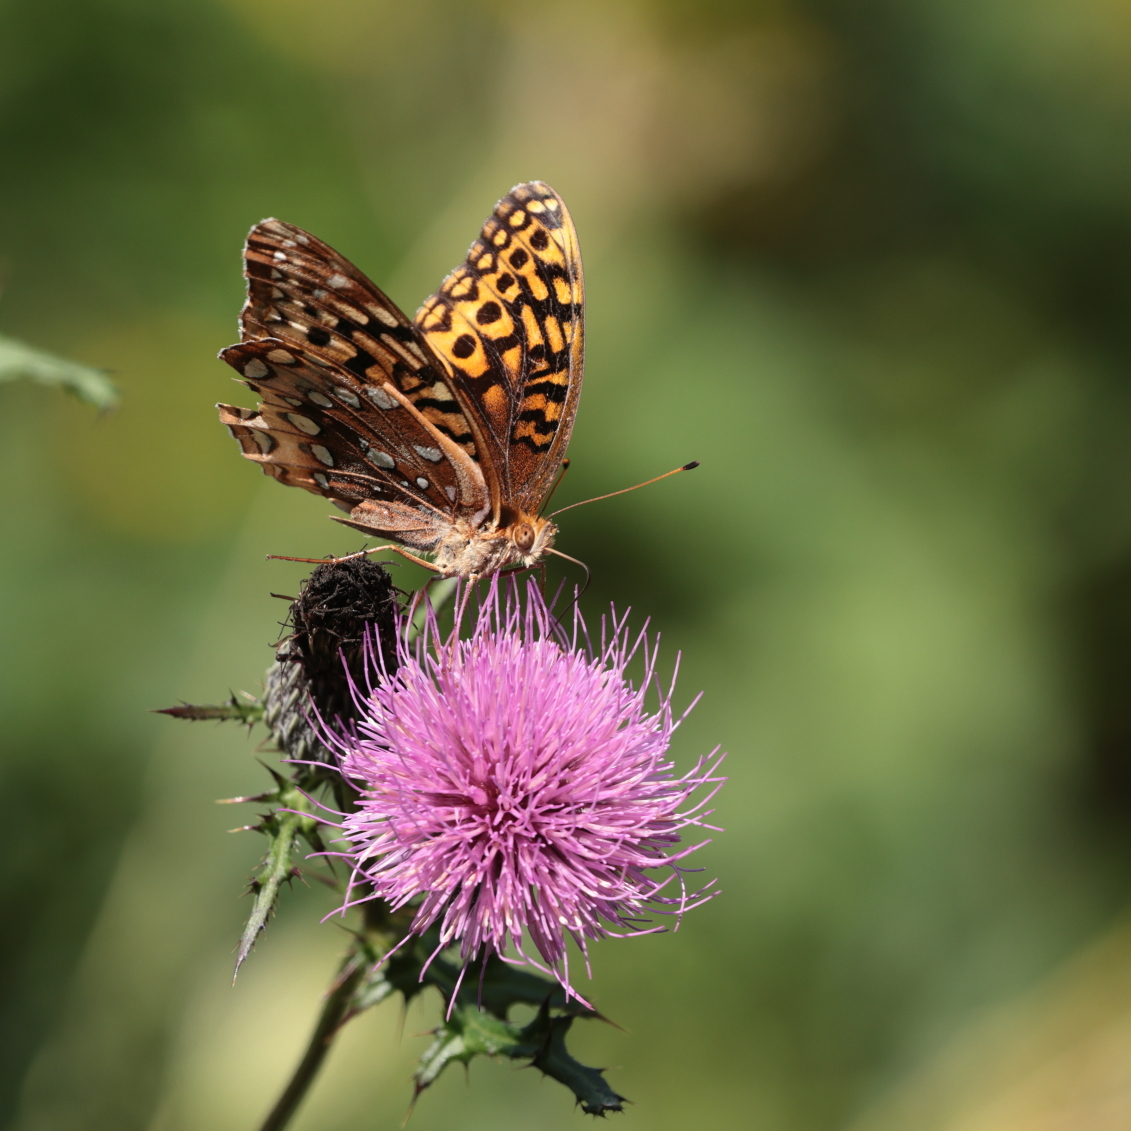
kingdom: Animalia
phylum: Arthropoda
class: Insecta
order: Lepidoptera
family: Nymphalidae
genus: Speyeria
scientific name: Speyeria cybele
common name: Great spangled fritillary
